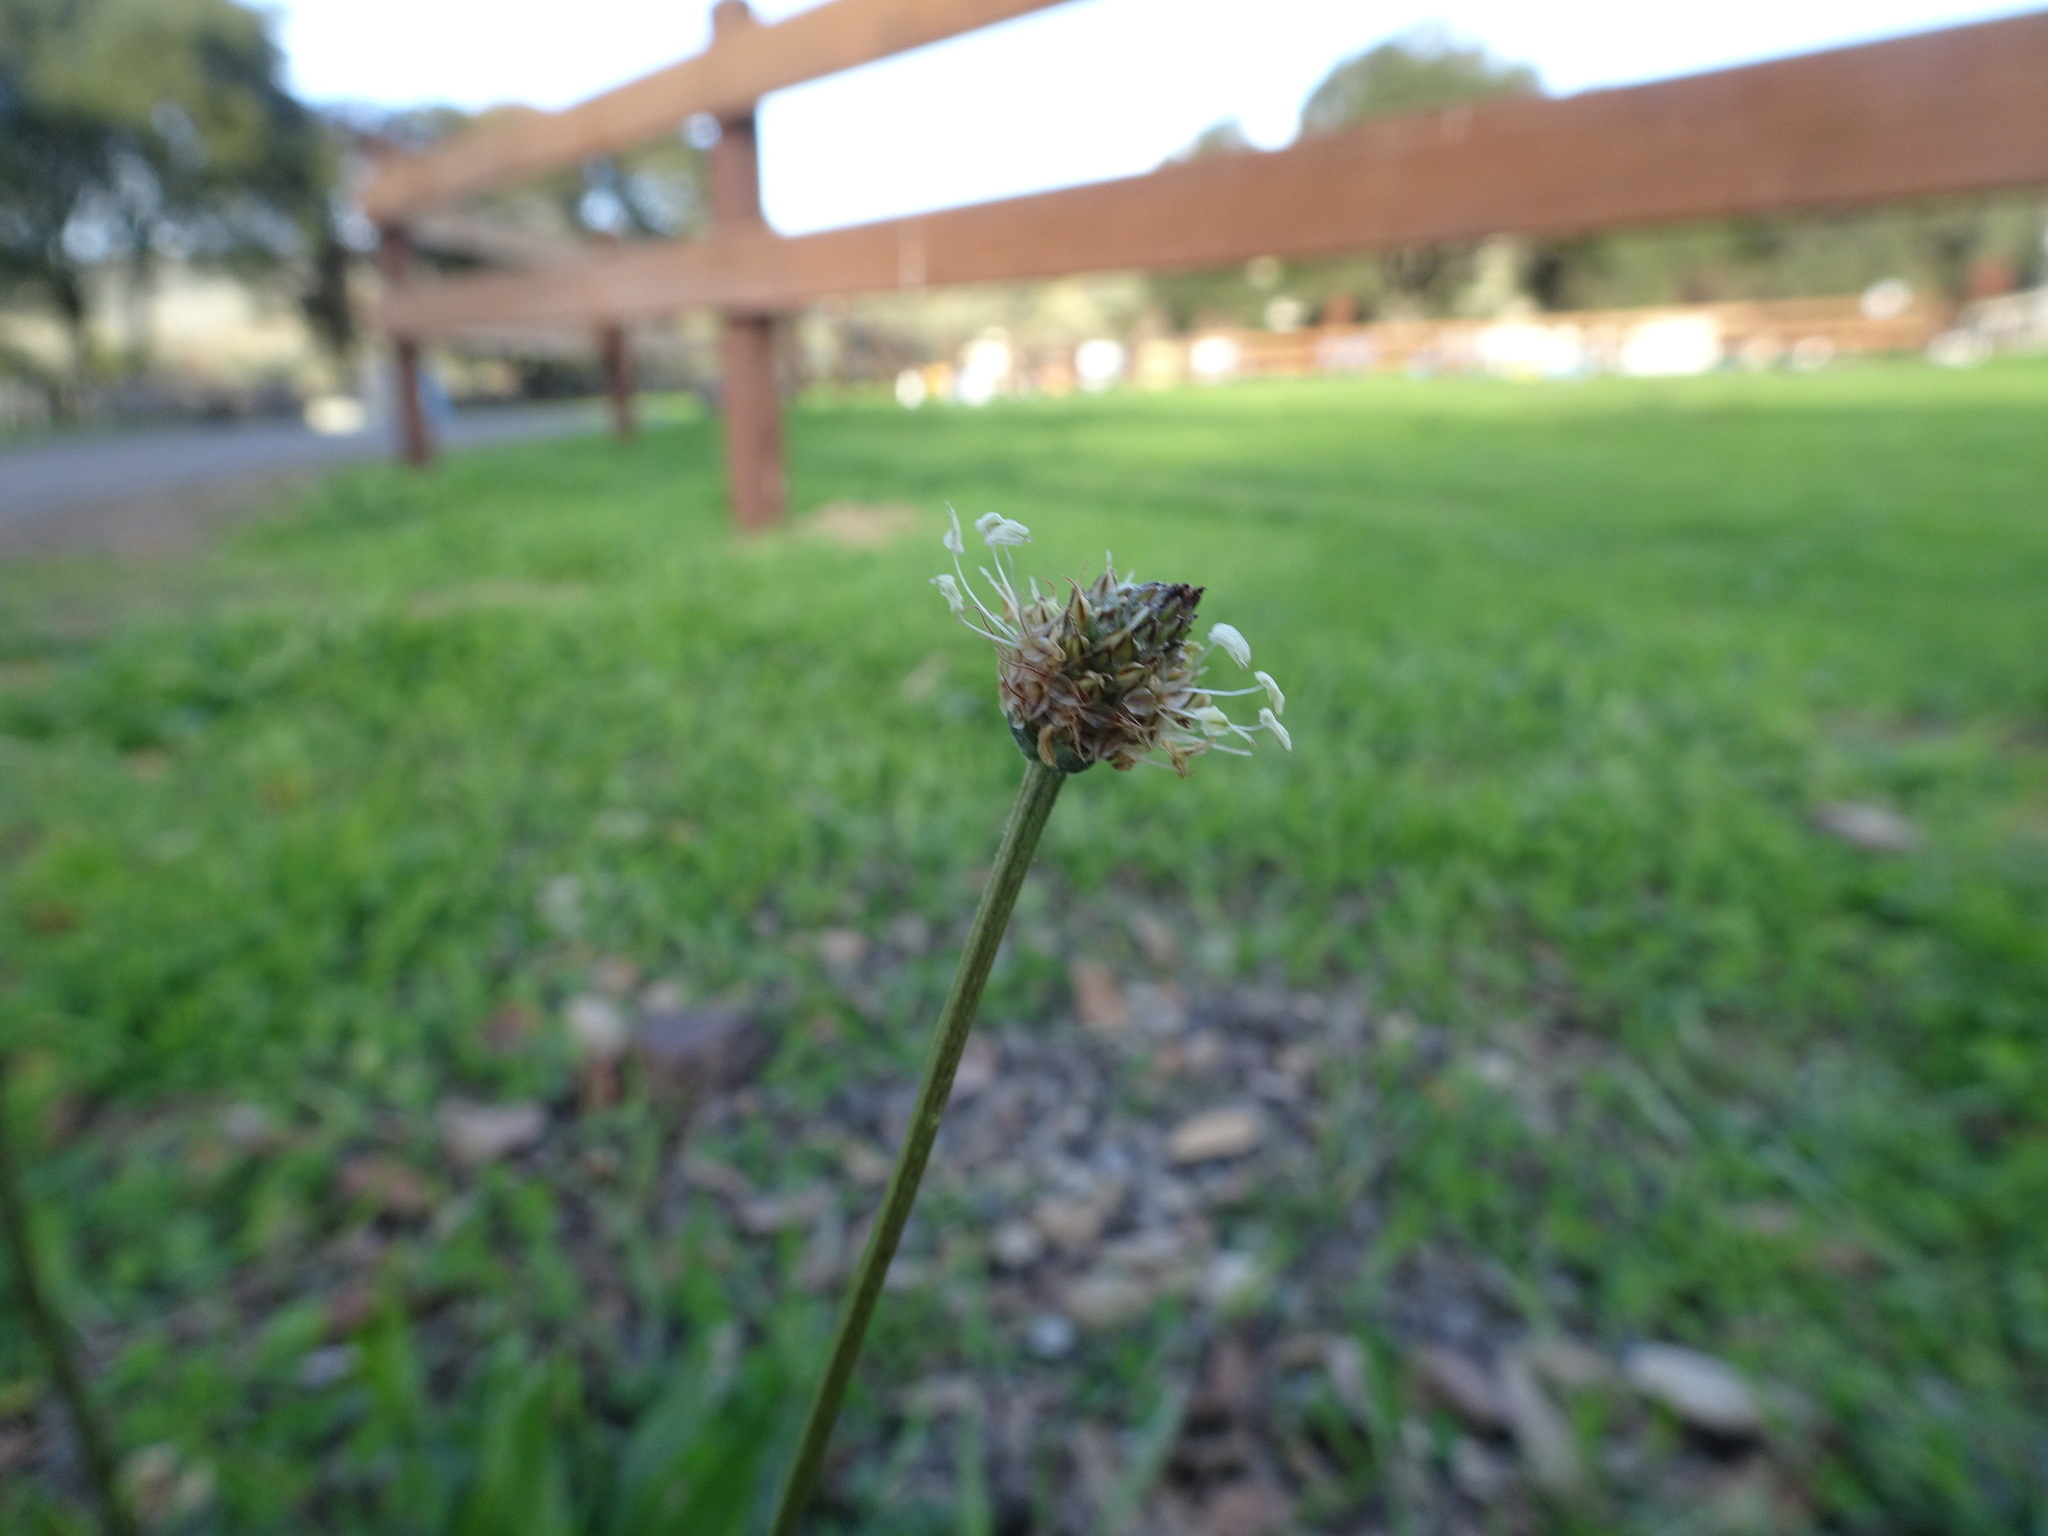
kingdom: Plantae
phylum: Tracheophyta
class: Magnoliopsida
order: Lamiales
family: Plantaginaceae
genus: Plantago
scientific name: Plantago lanceolata
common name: Ribwort plantain
